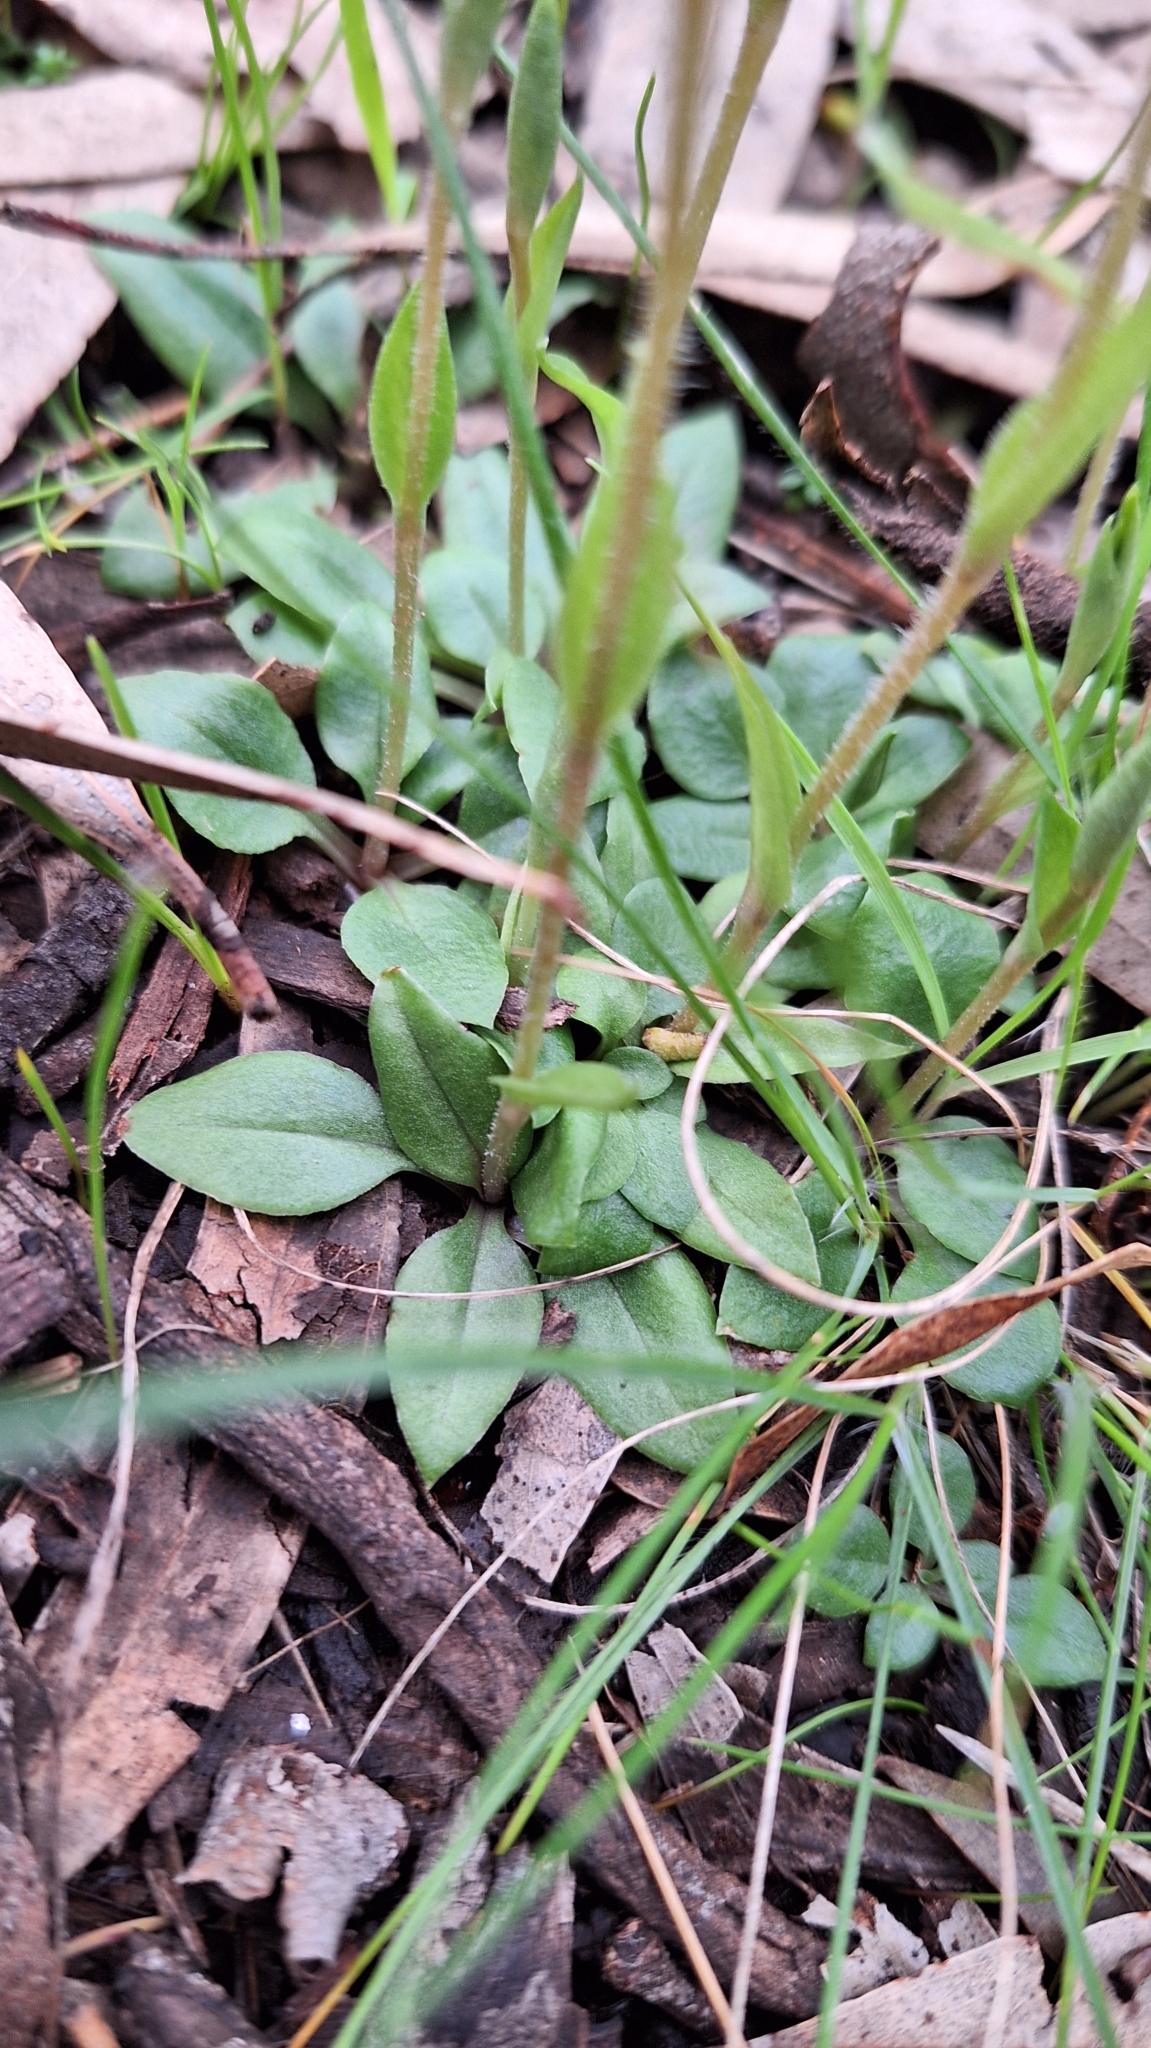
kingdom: Plantae
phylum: Tracheophyta
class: Liliopsida
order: Asparagales
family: Orchidaceae
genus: Pterostylis
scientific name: Pterostylis nana
